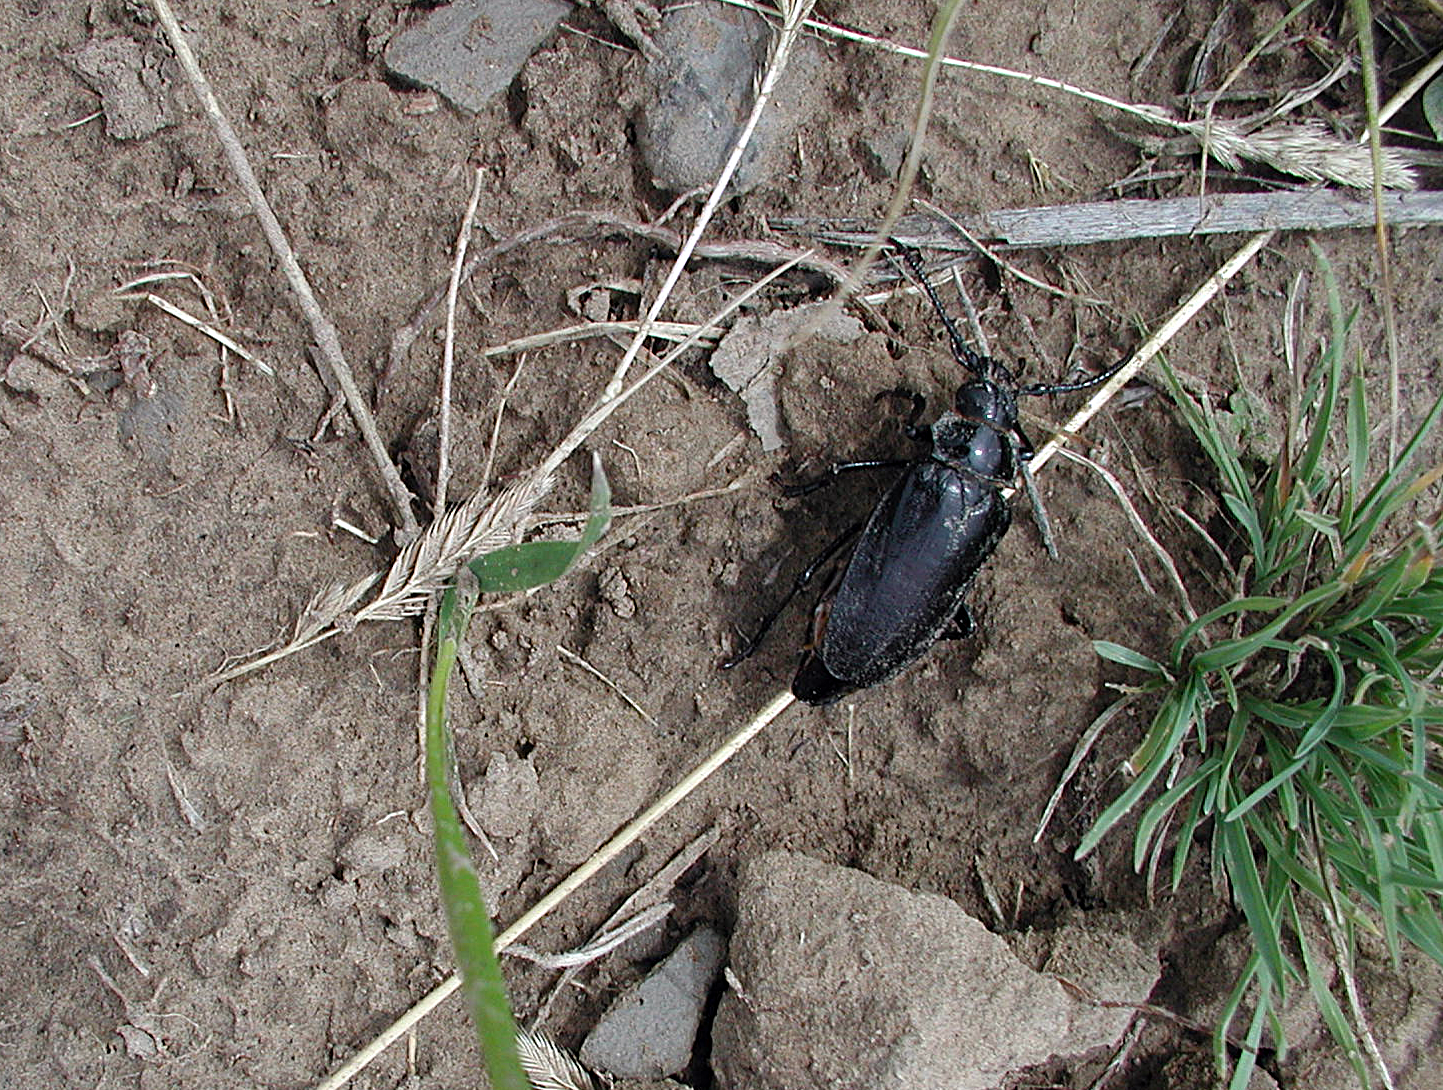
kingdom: Animalia
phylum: Arthropoda
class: Insecta
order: Coleoptera
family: Cerambycidae
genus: Prionus
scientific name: Prionus fissicornis
